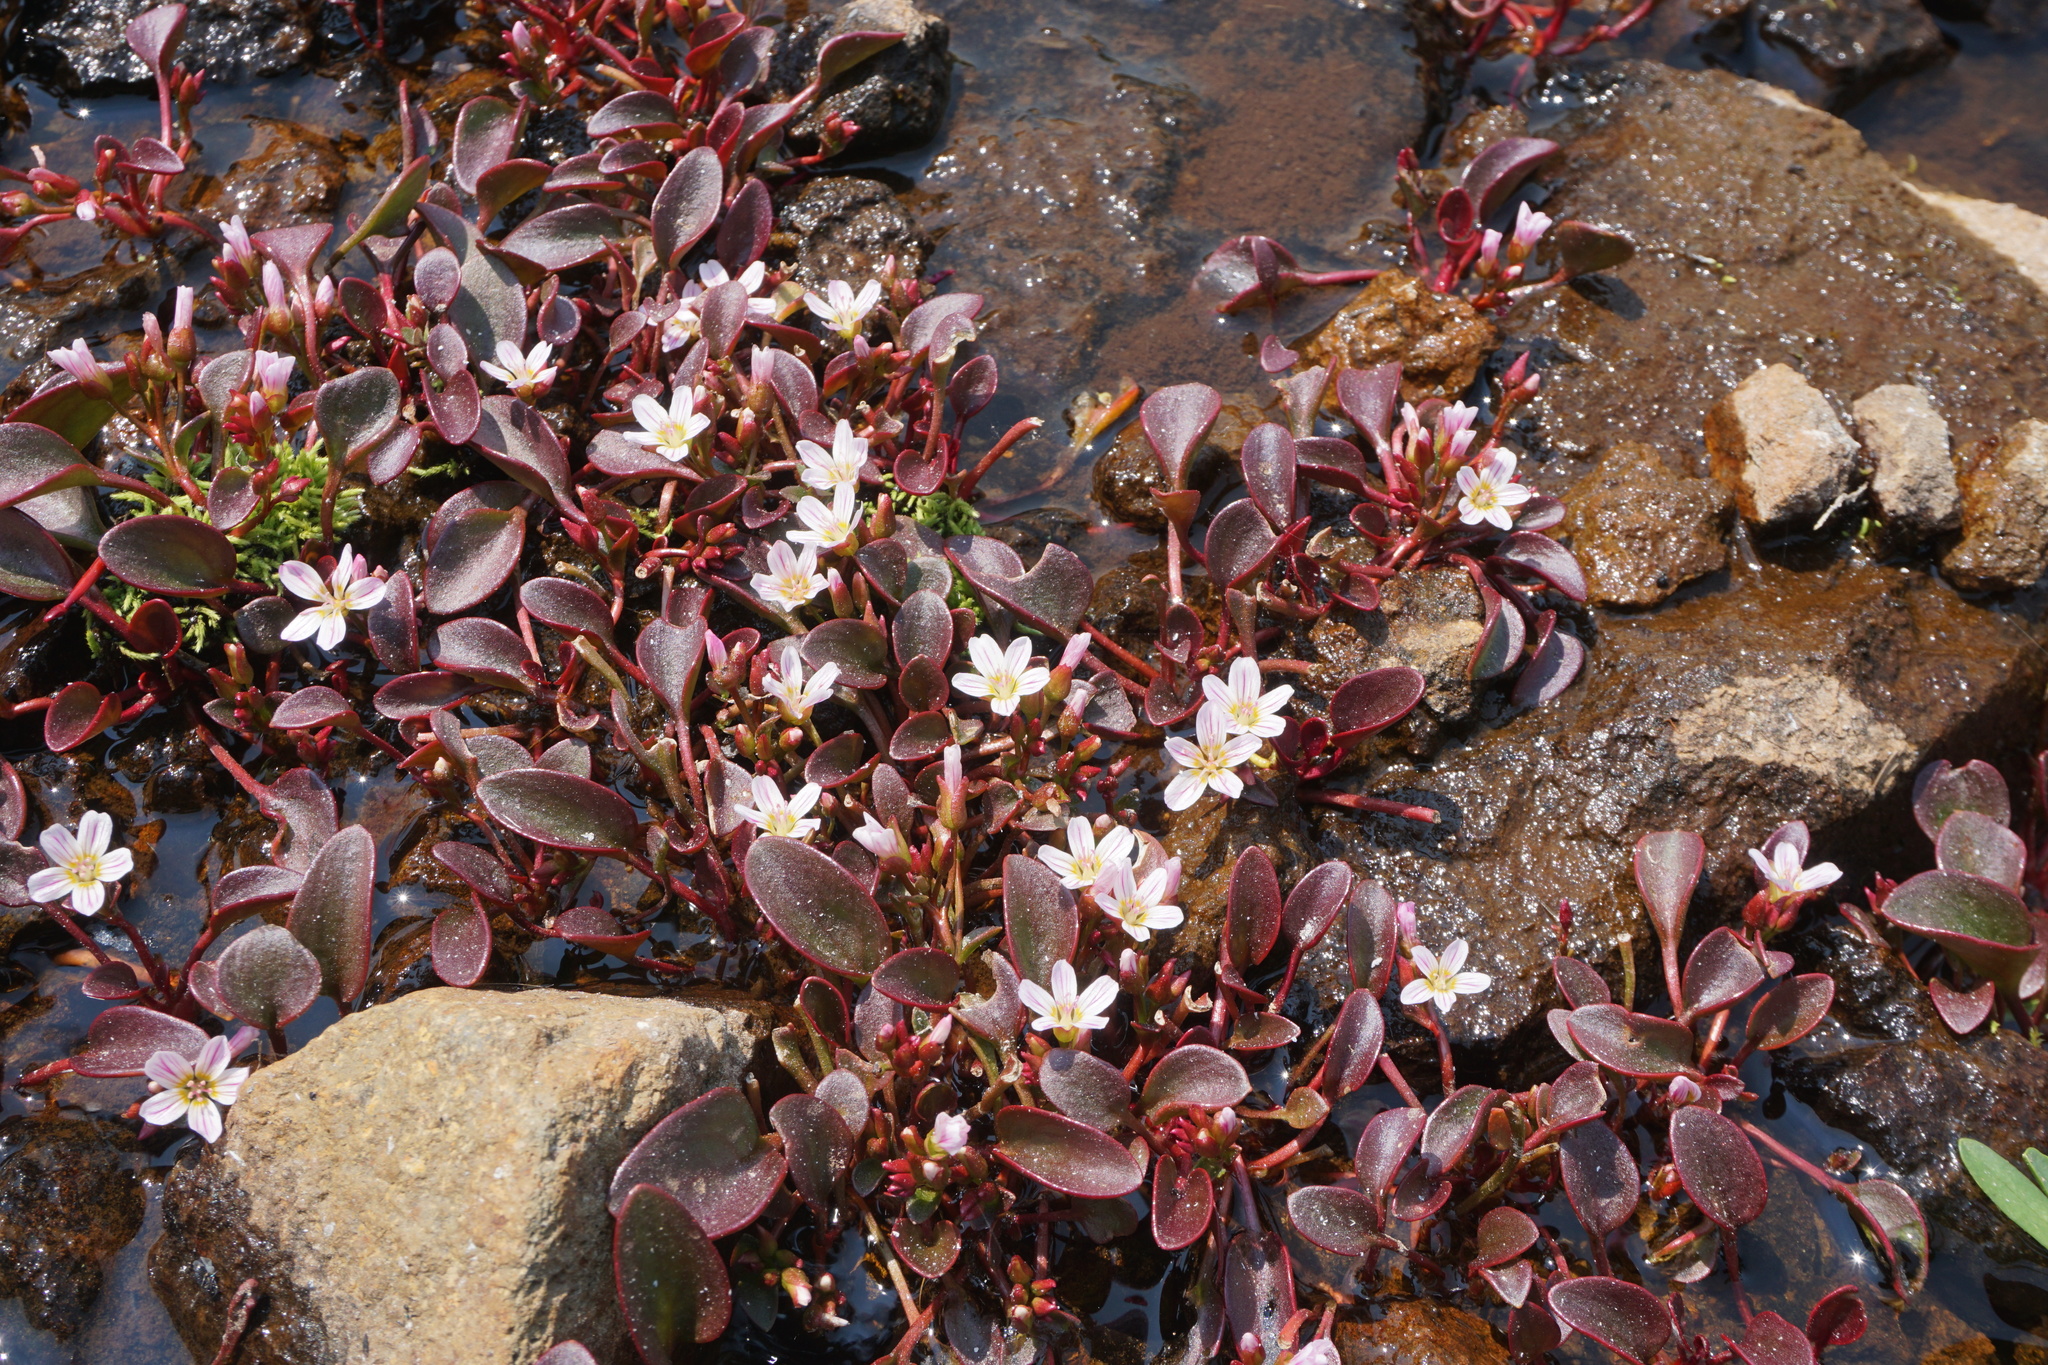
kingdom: Plantae
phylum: Tracheophyta
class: Magnoliopsida
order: Caryophyllales
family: Montiaceae
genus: Claytonia
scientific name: Claytonia nevadensis
